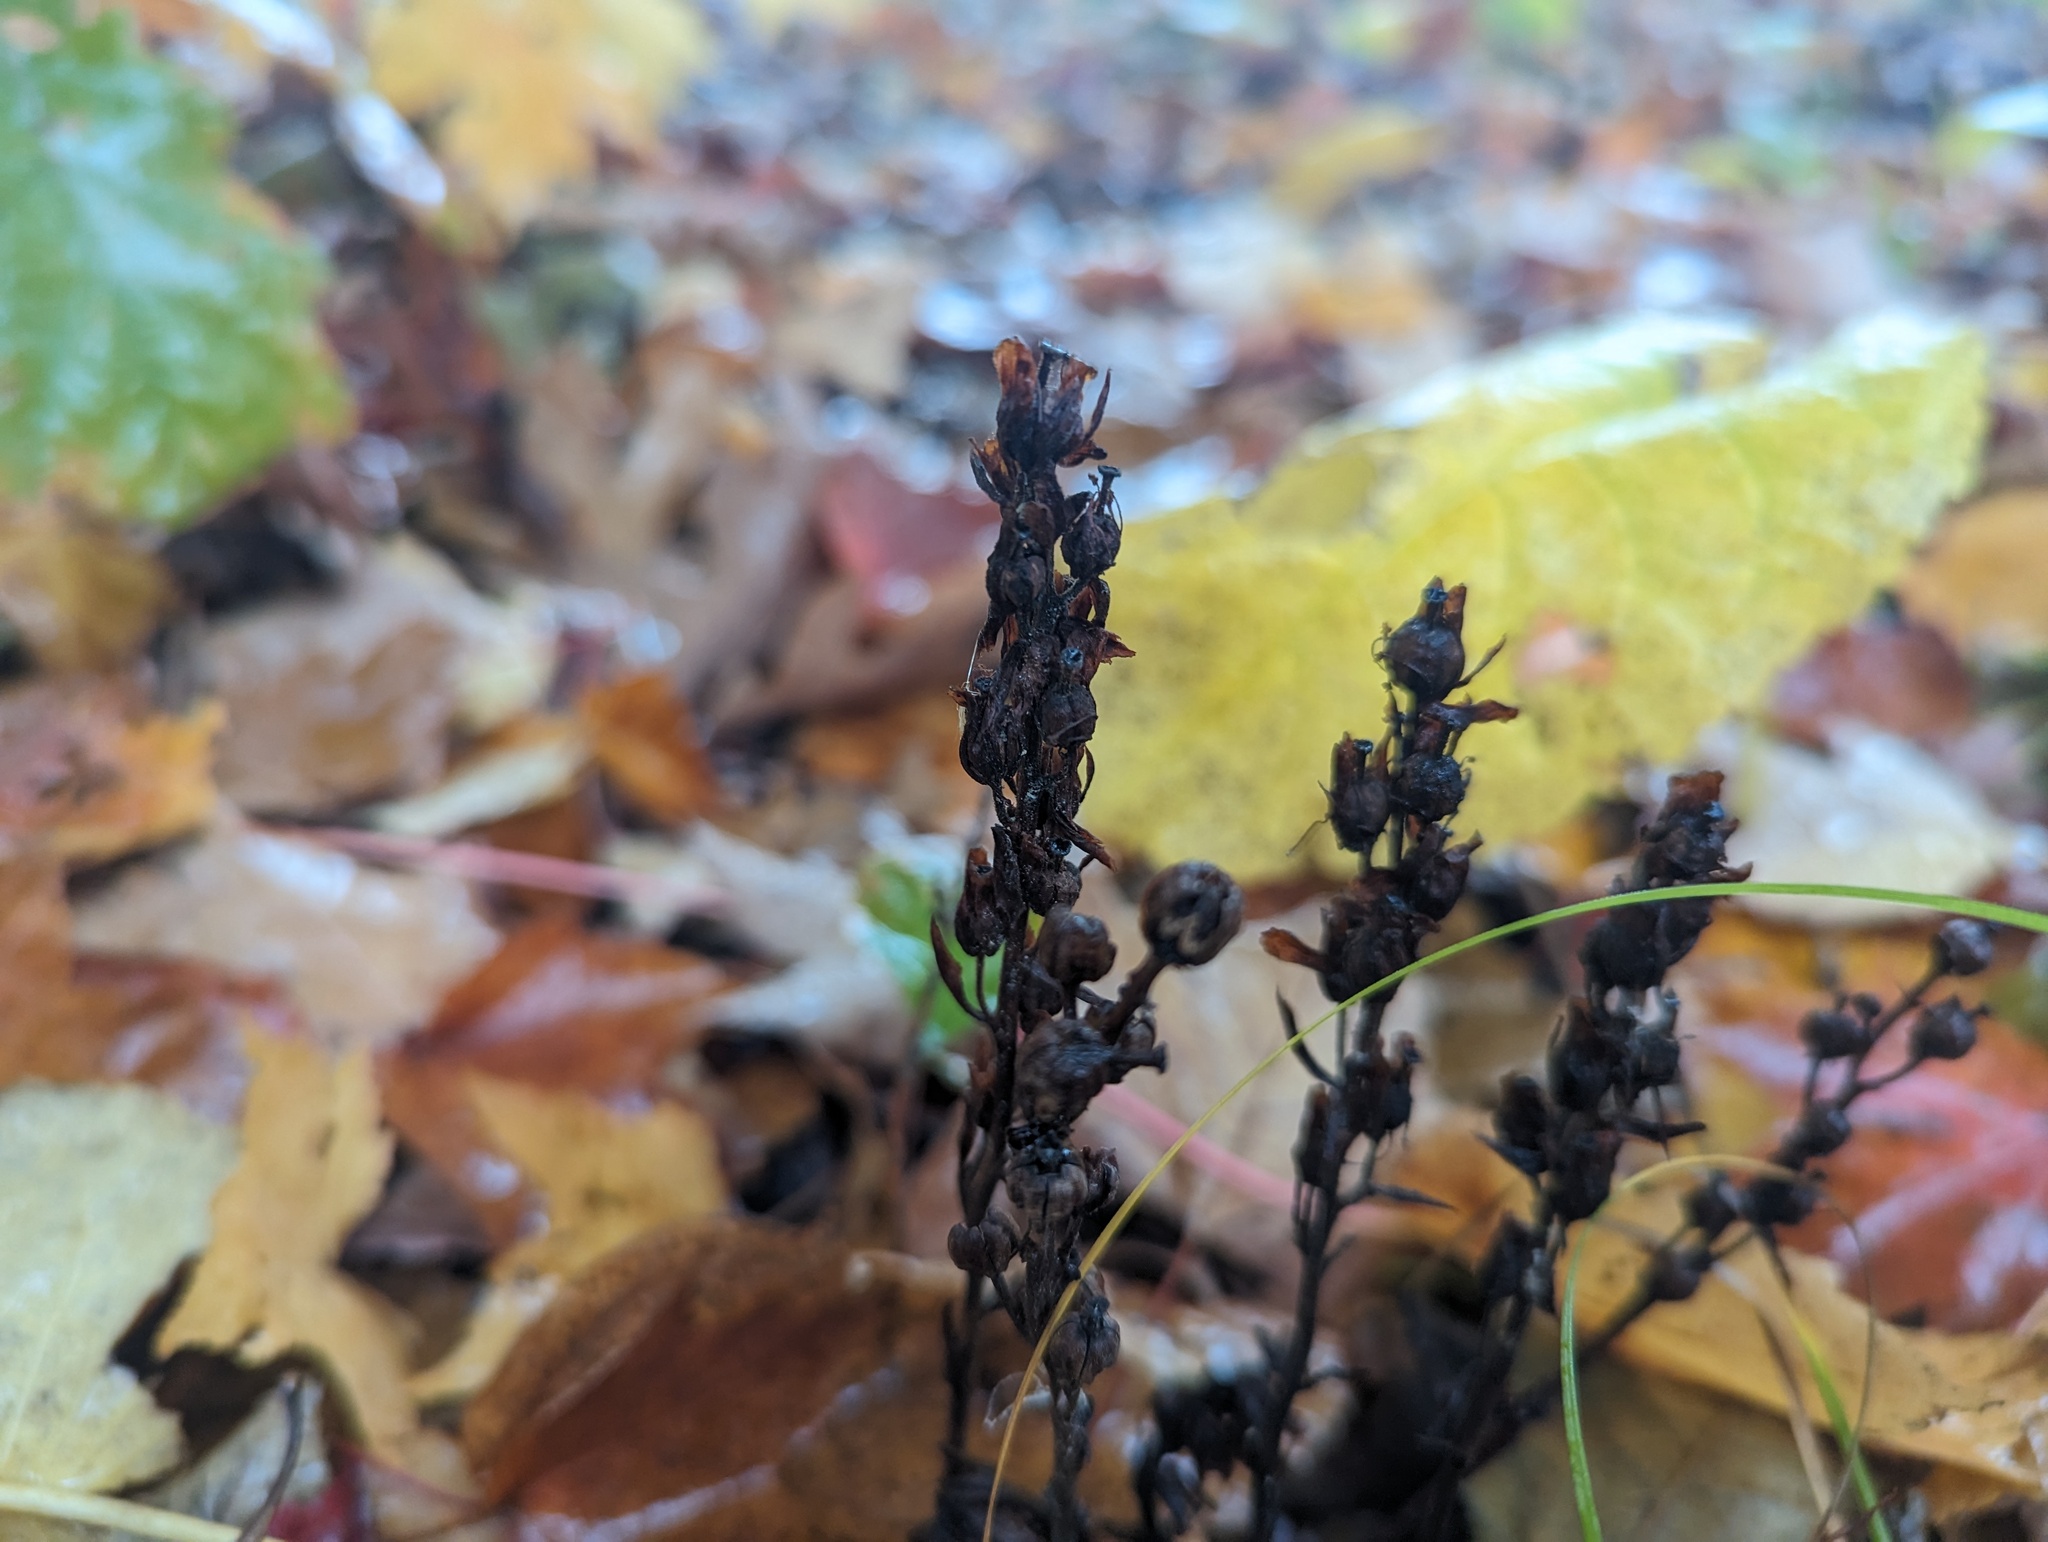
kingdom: Plantae
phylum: Tracheophyta
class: Magnoliopsida
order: Ericales
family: Ericaceae
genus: Hypopitys
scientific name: Hypopitys monotropa
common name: Yellow bird's-nest
